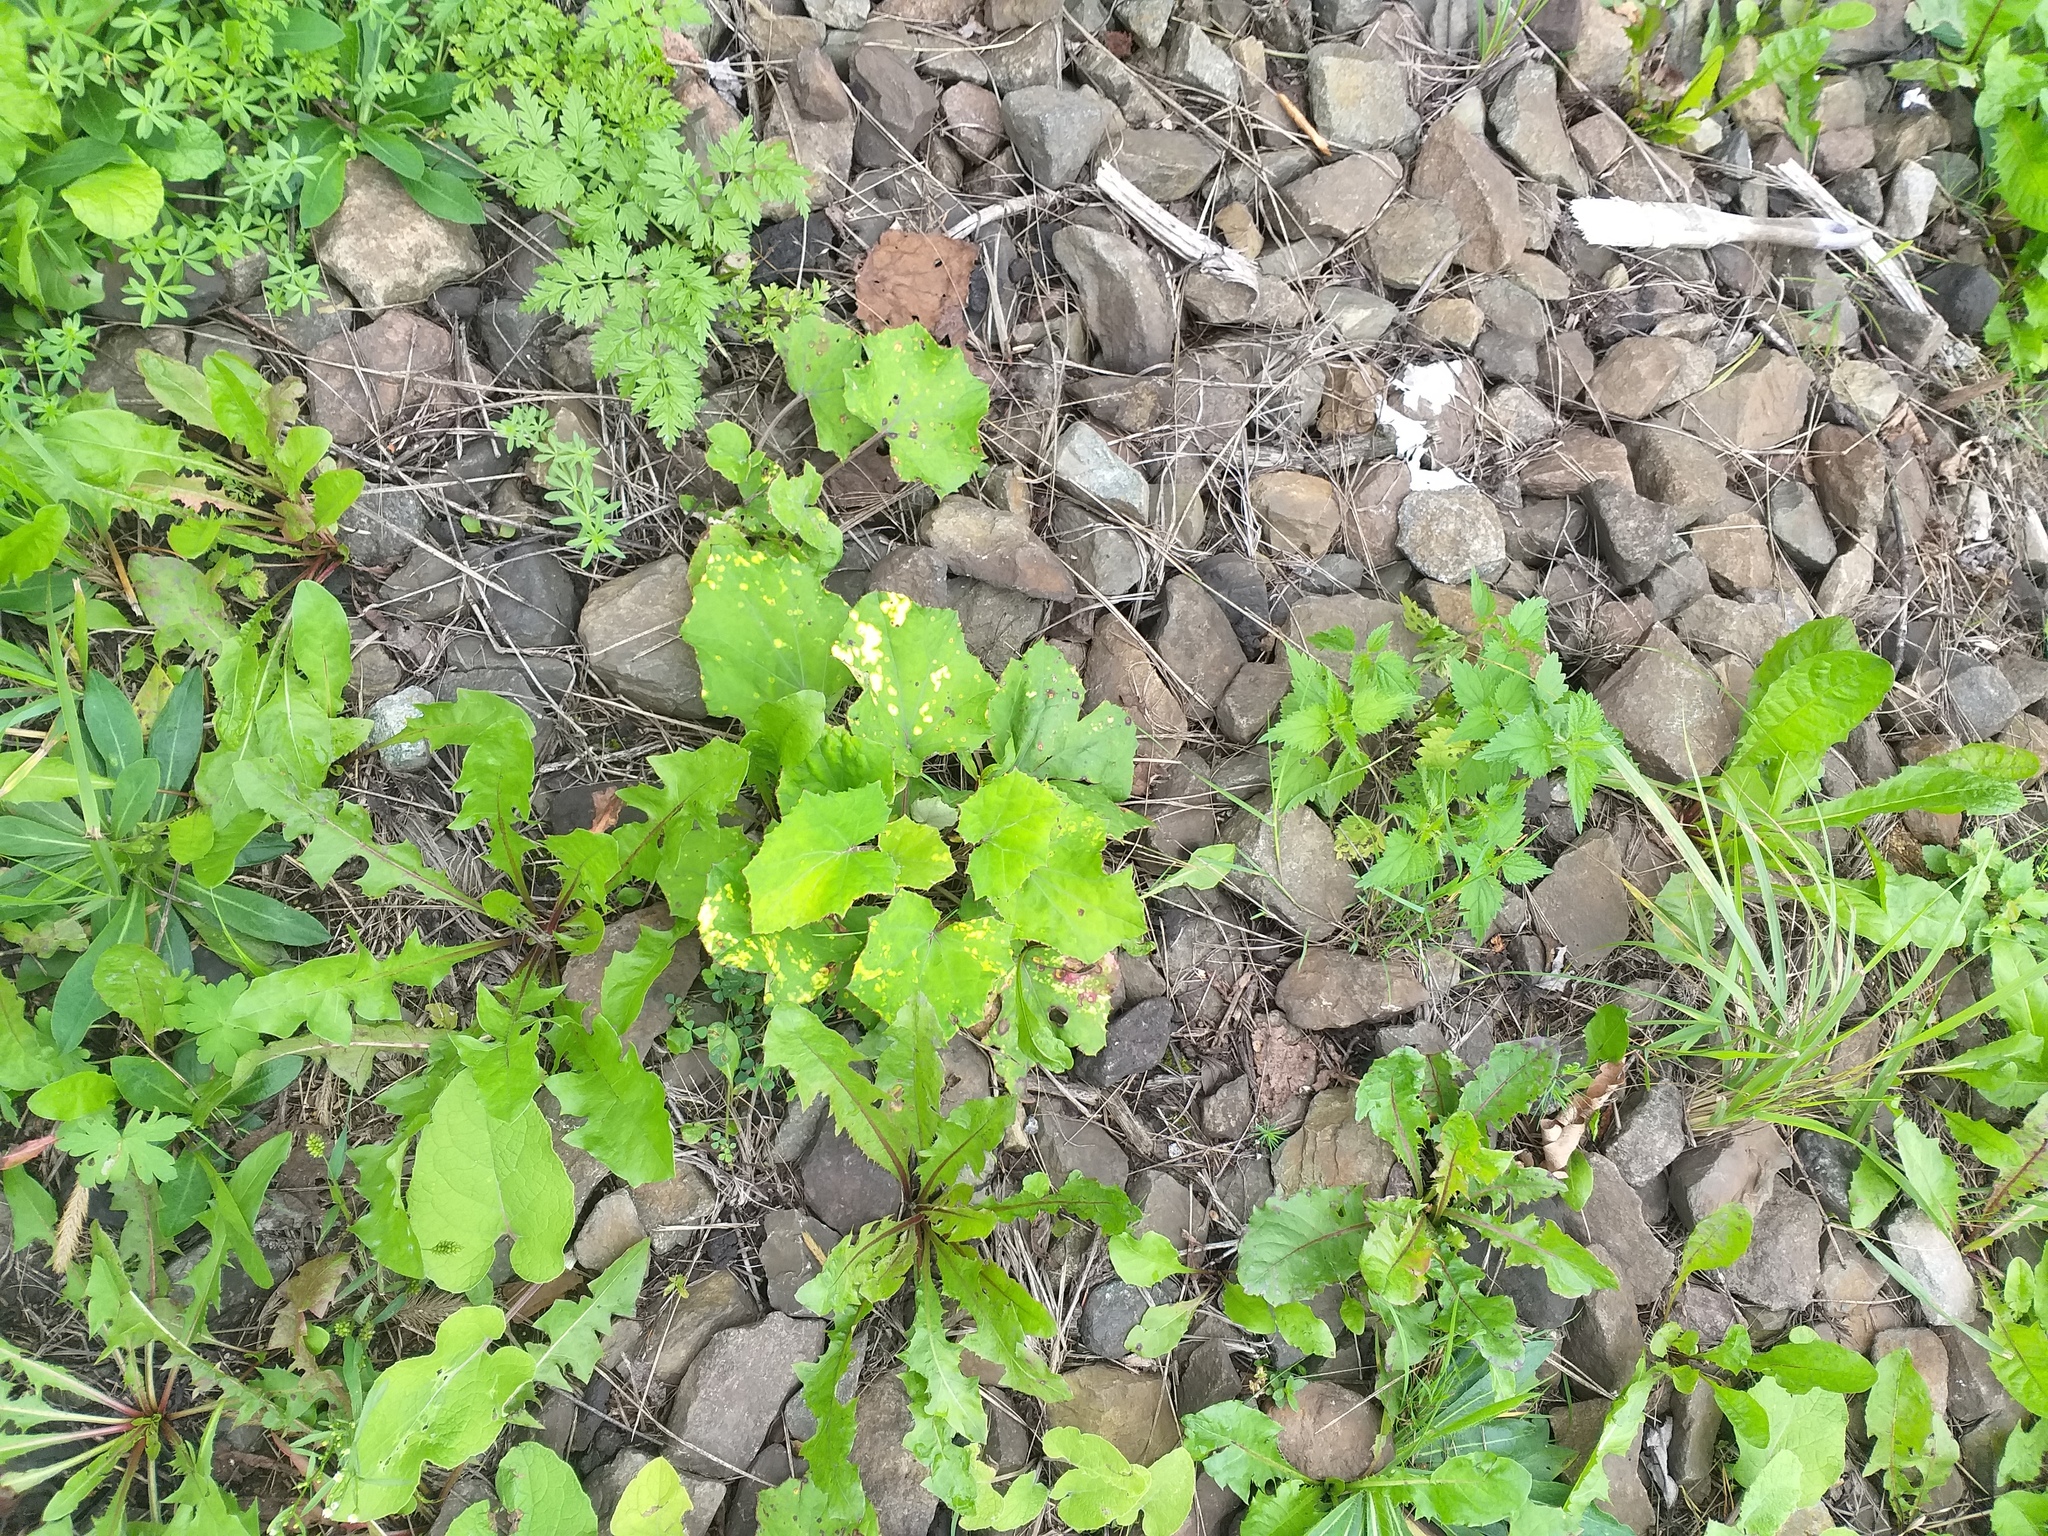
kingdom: Plantae
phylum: Tracheophyta
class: Magnoliopsida
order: Asterales
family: Asteraceae
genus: Tussilago
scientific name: Tussilago farfara
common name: Coltsfoot
